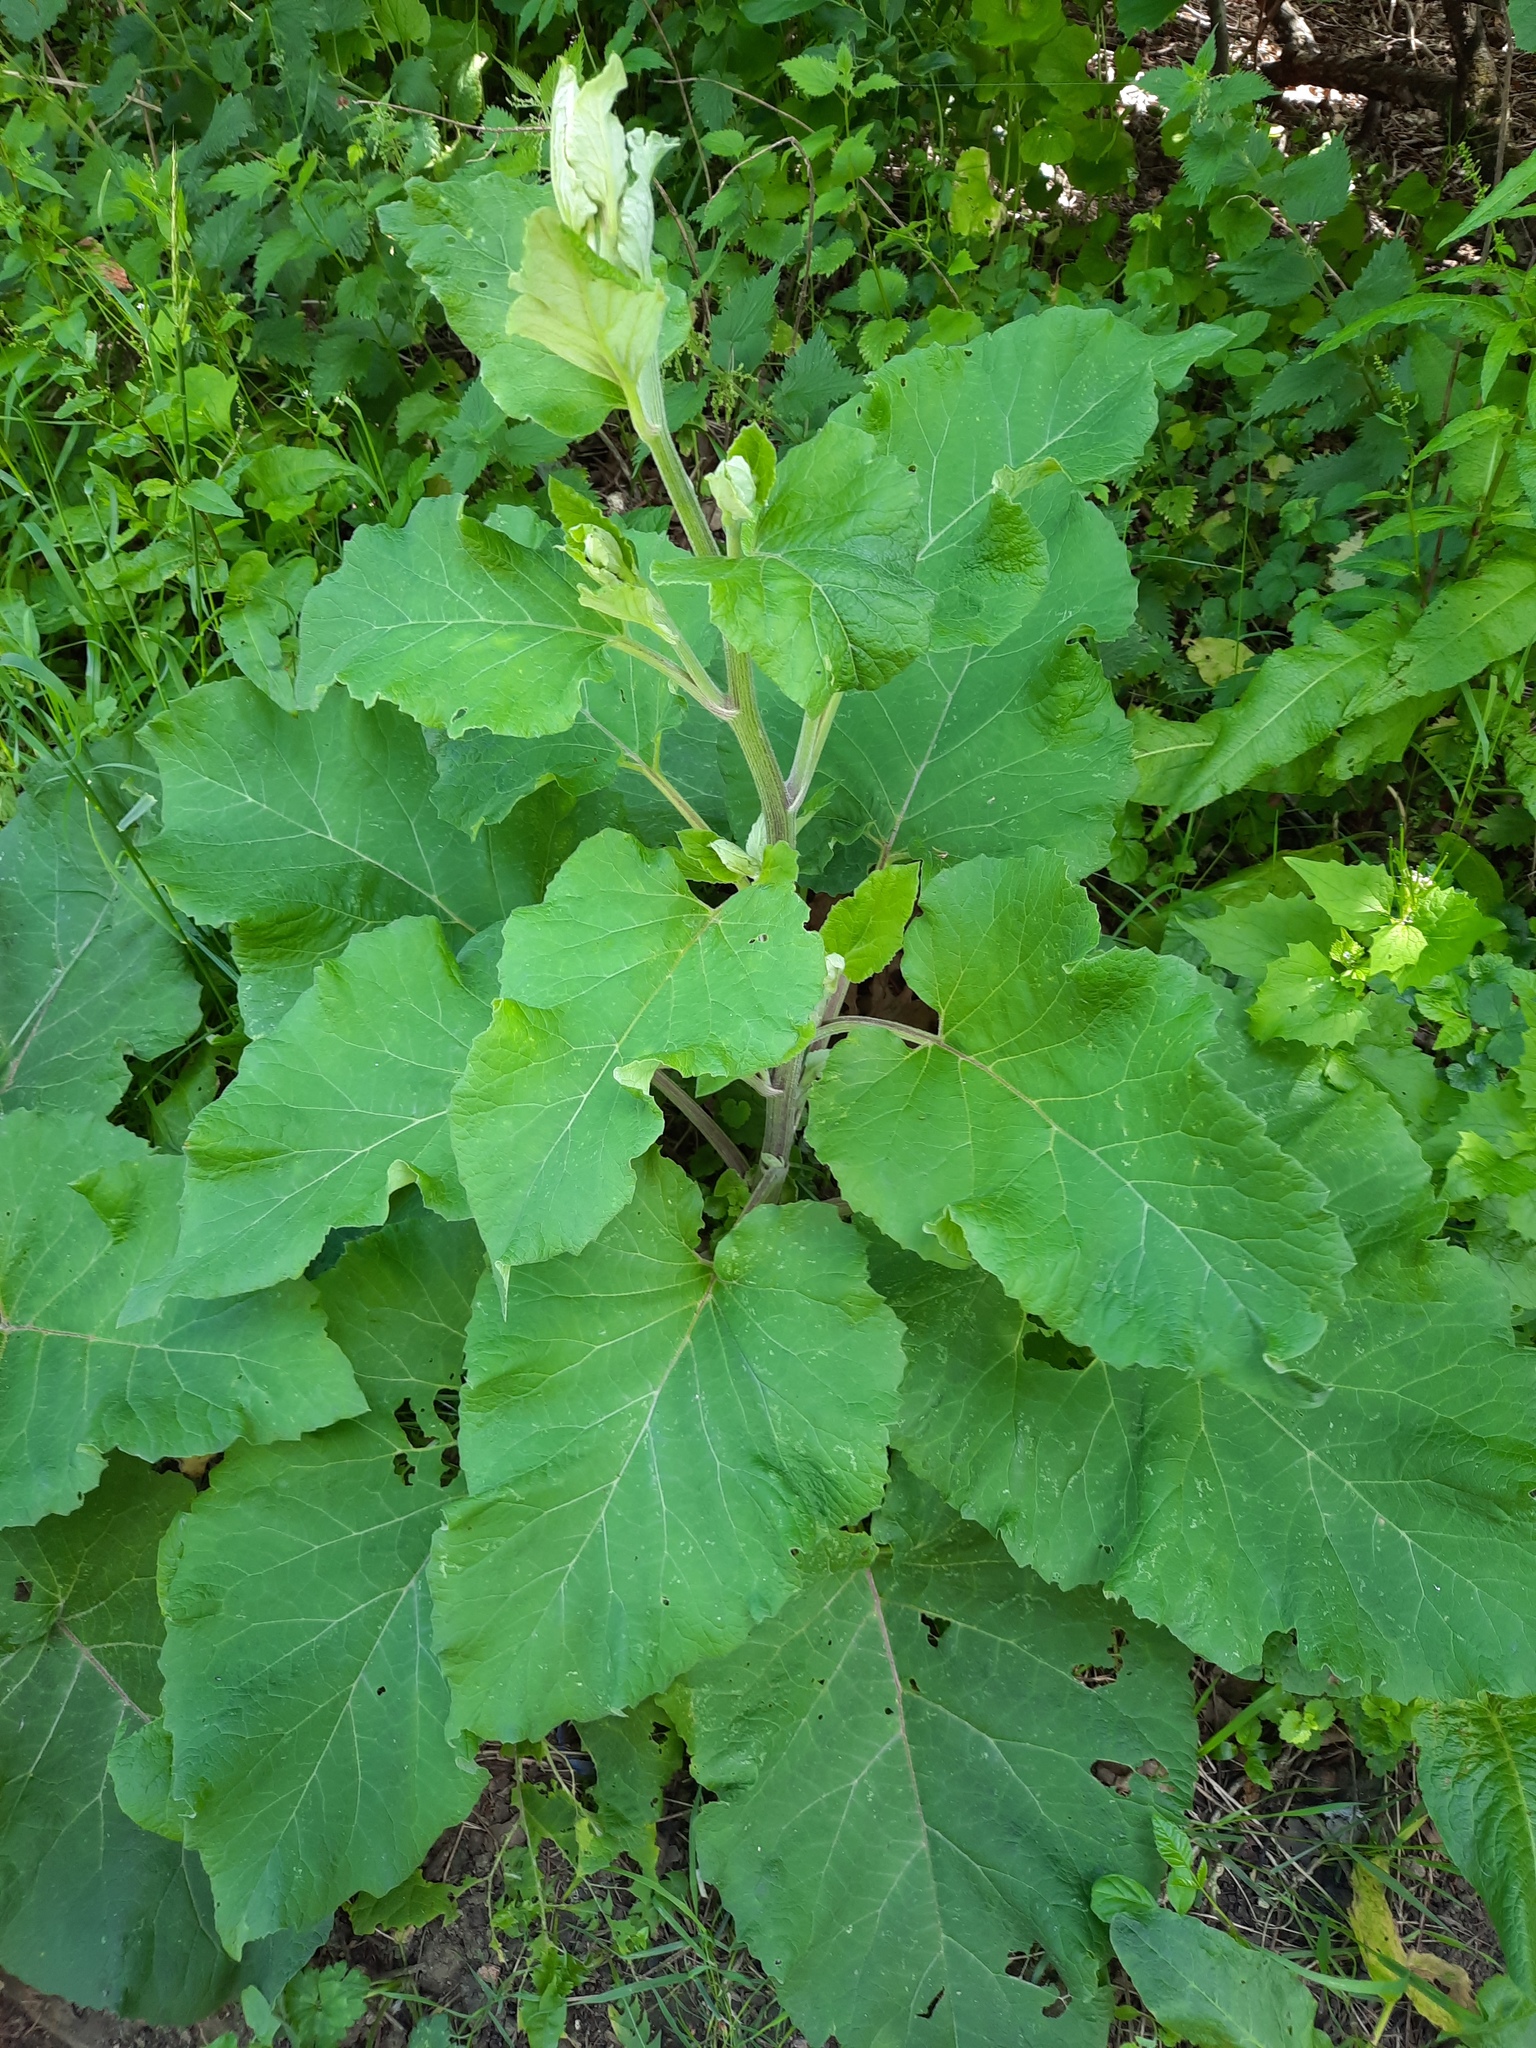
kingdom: Plantae
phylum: Tracheophyta
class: Magnoliopsida
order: Asterales
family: Asteraceae
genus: Arctium
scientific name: Arctium lappa
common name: Greater burdock
